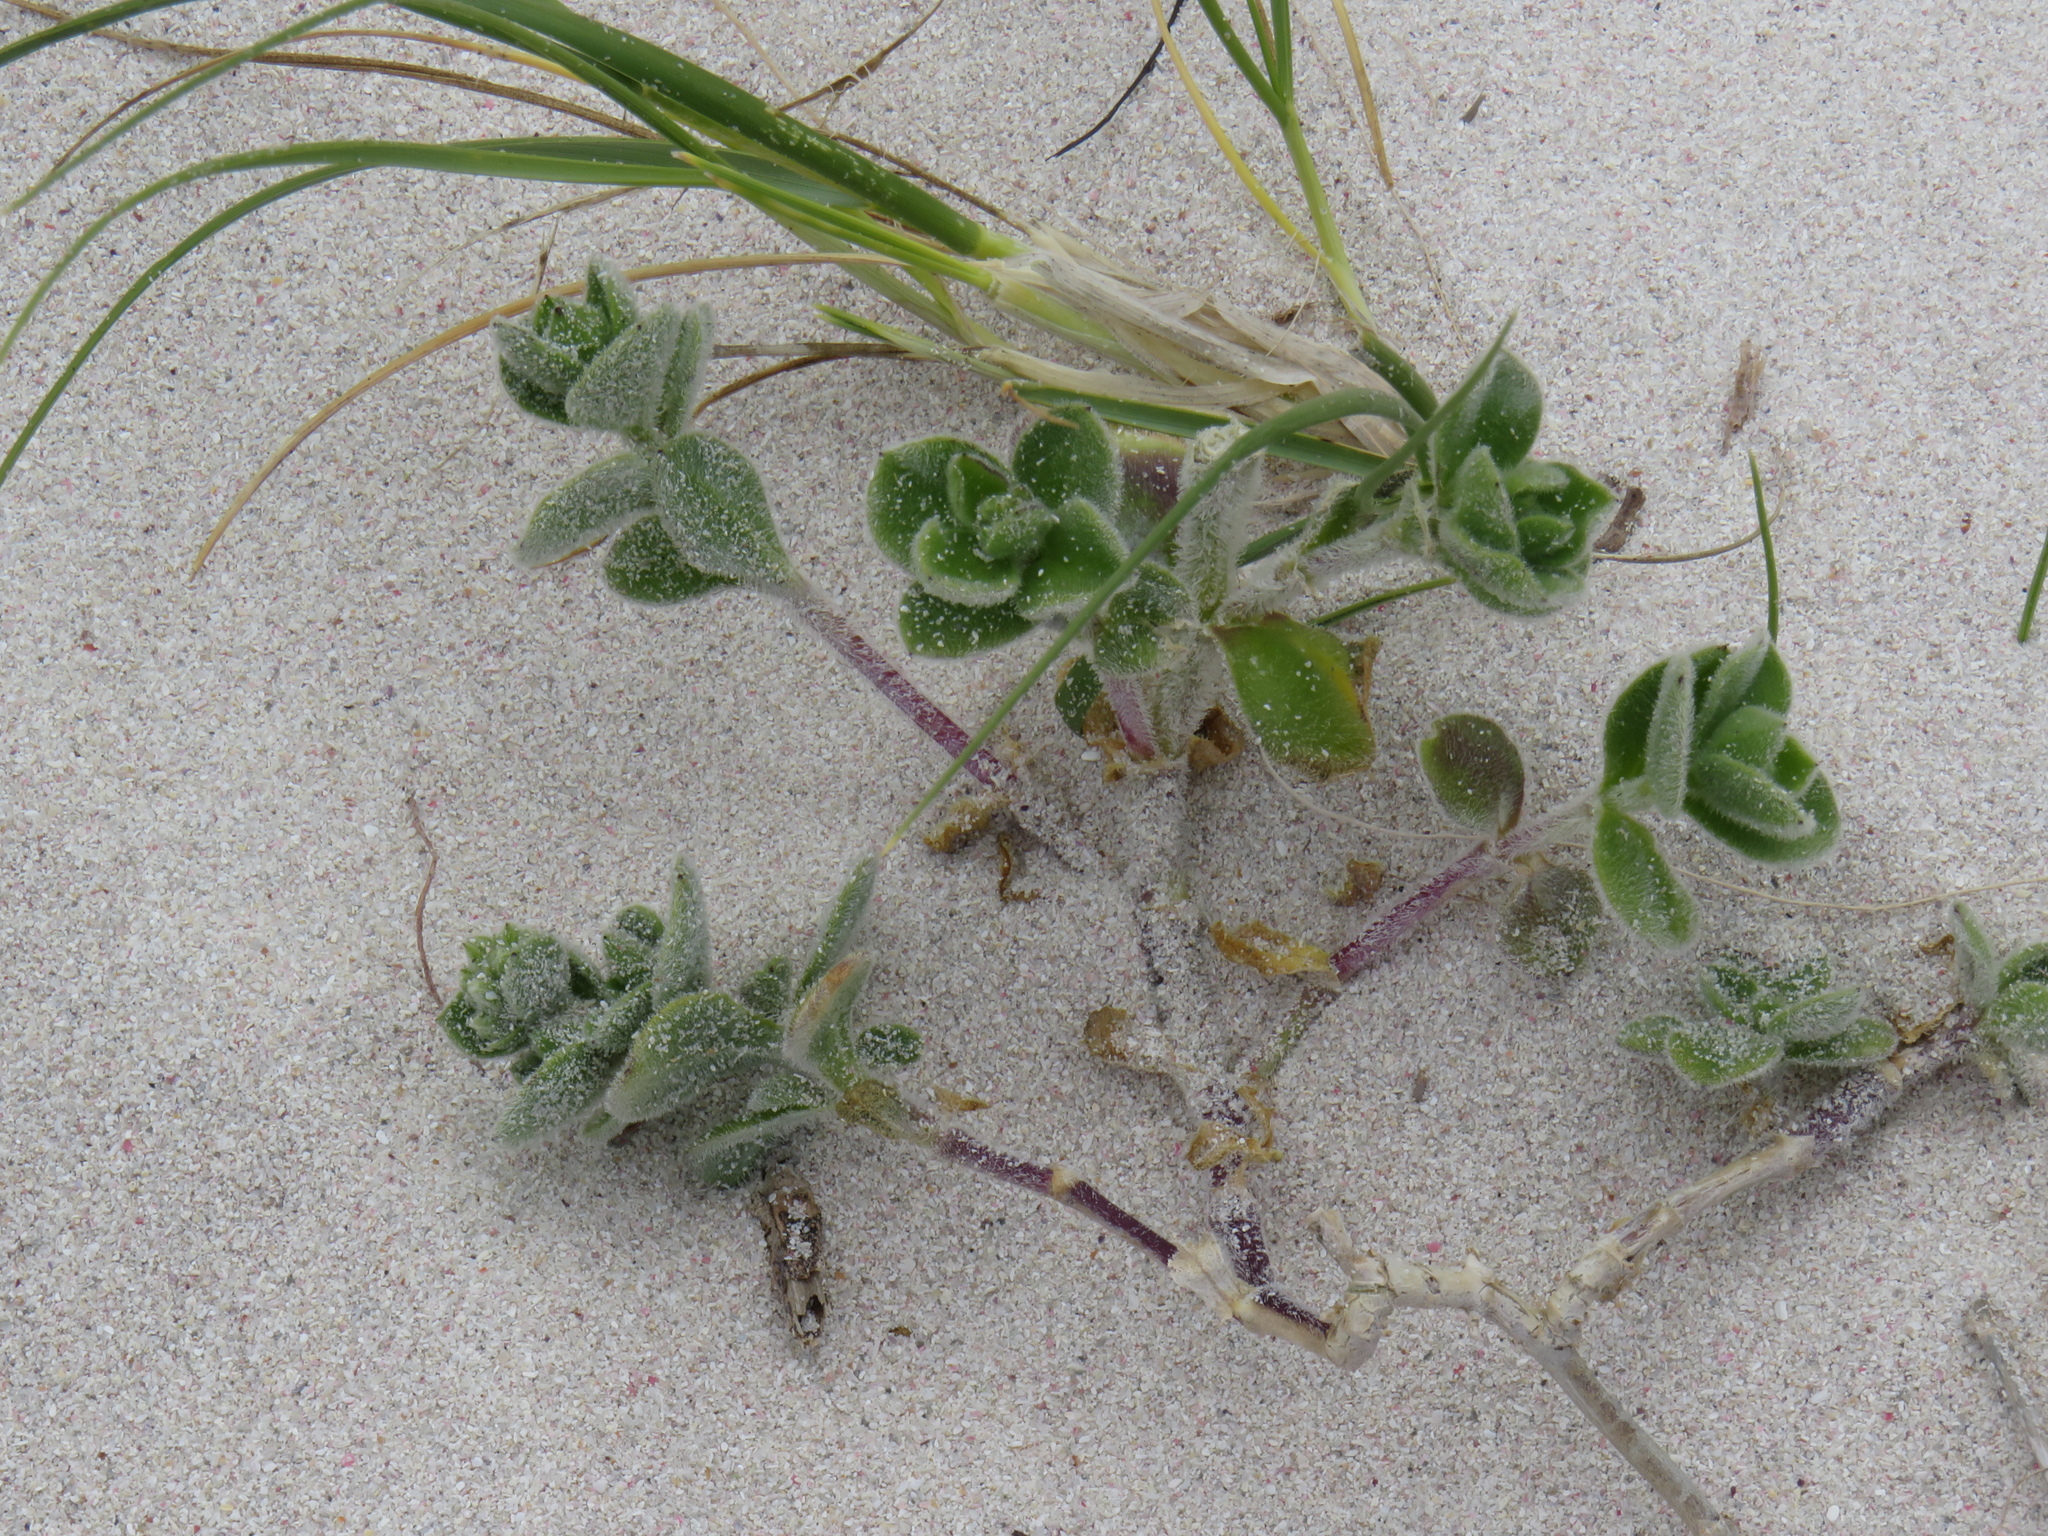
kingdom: Plantae
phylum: Tracheophyta
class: Magnoliopsida
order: Caryophyllales
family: Caryophyllaceae
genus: Silene
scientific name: Silene crassifolia
